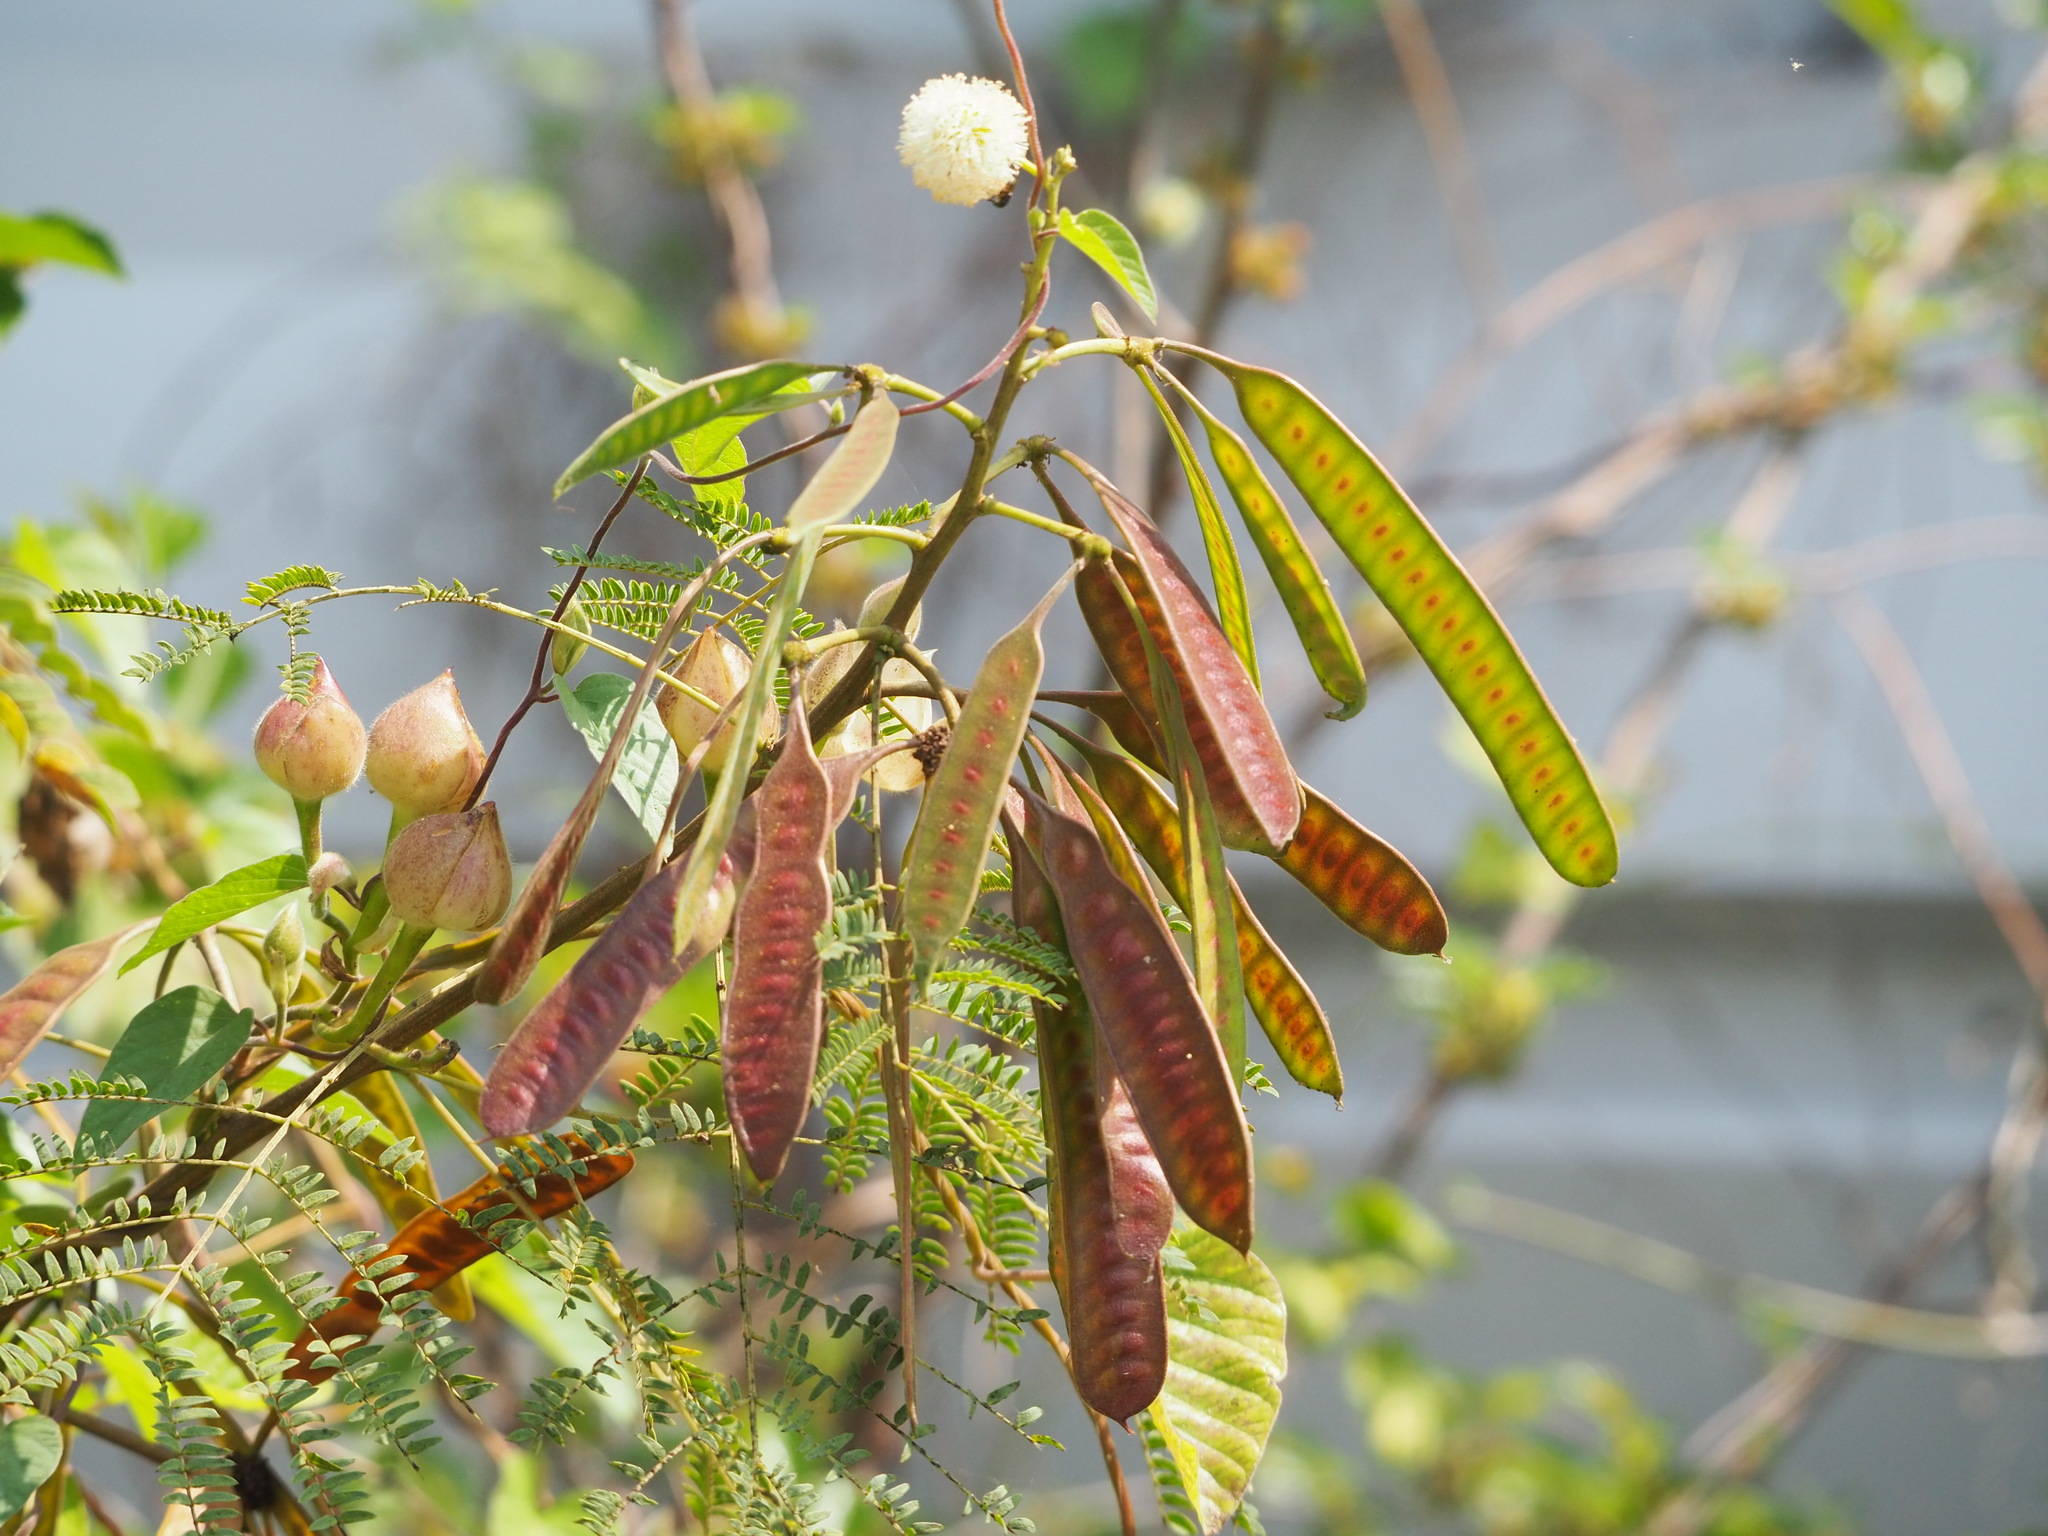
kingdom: Plantae
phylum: Tracheophyta
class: Magnoliopsida
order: Fabales
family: Fabaceae
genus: Leucaena
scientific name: Leucaena leucocephala
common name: White leadtree
